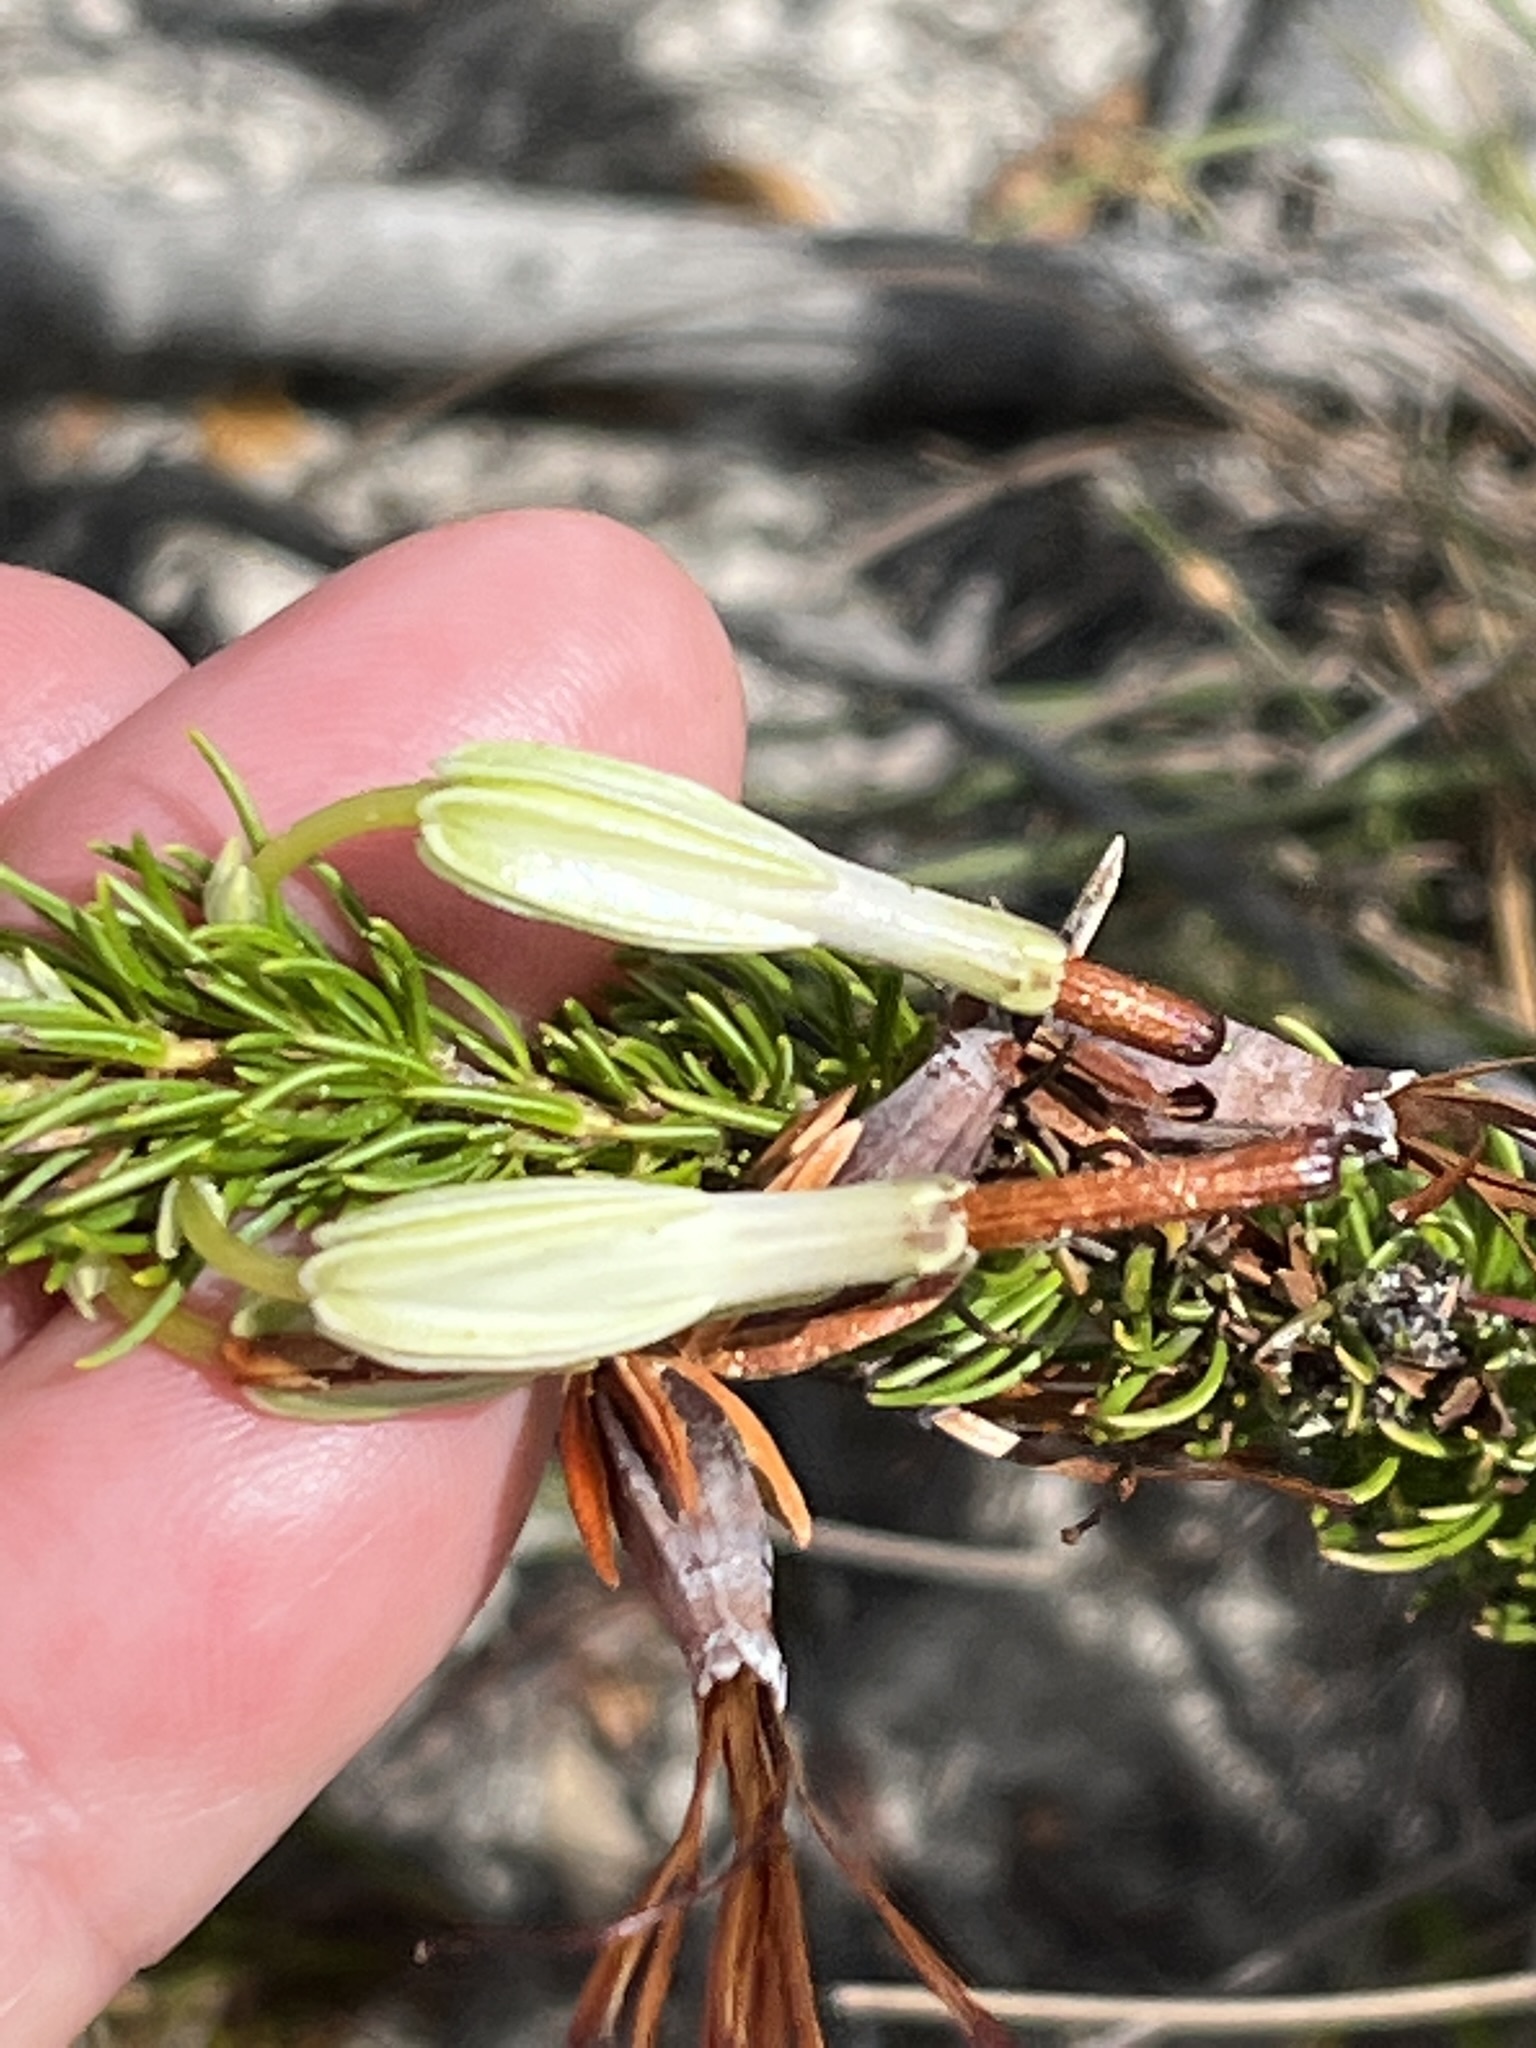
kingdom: Plantae
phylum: Tracheophyta
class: Magnoliopsida
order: Ericales
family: Ericaceae
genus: Erica
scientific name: Erica plukenetii
